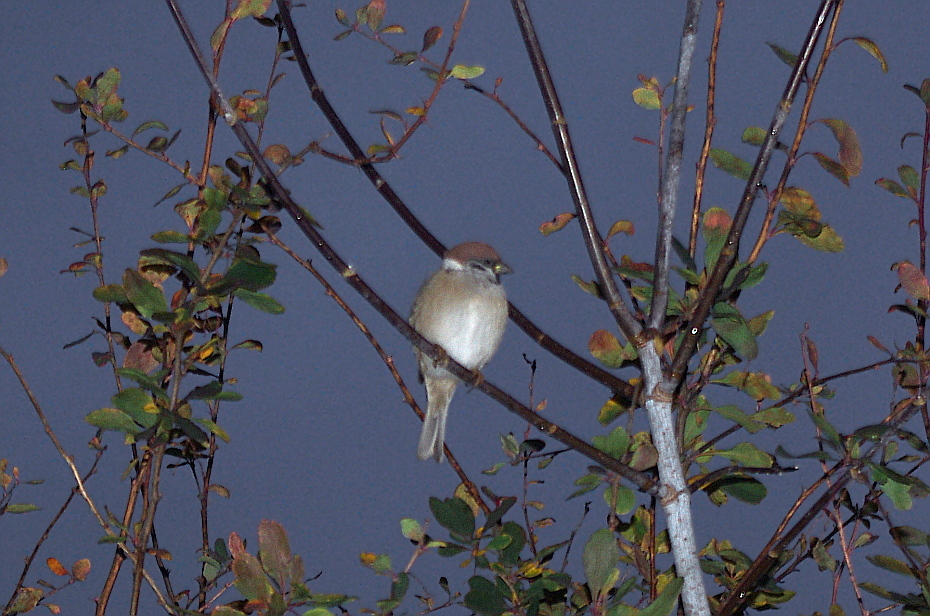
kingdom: Animalia
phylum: Chordata
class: Aves
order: Passeriformes
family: Passeridae
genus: Passer
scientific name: Passer montanus
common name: Eurasian tree sparrow
